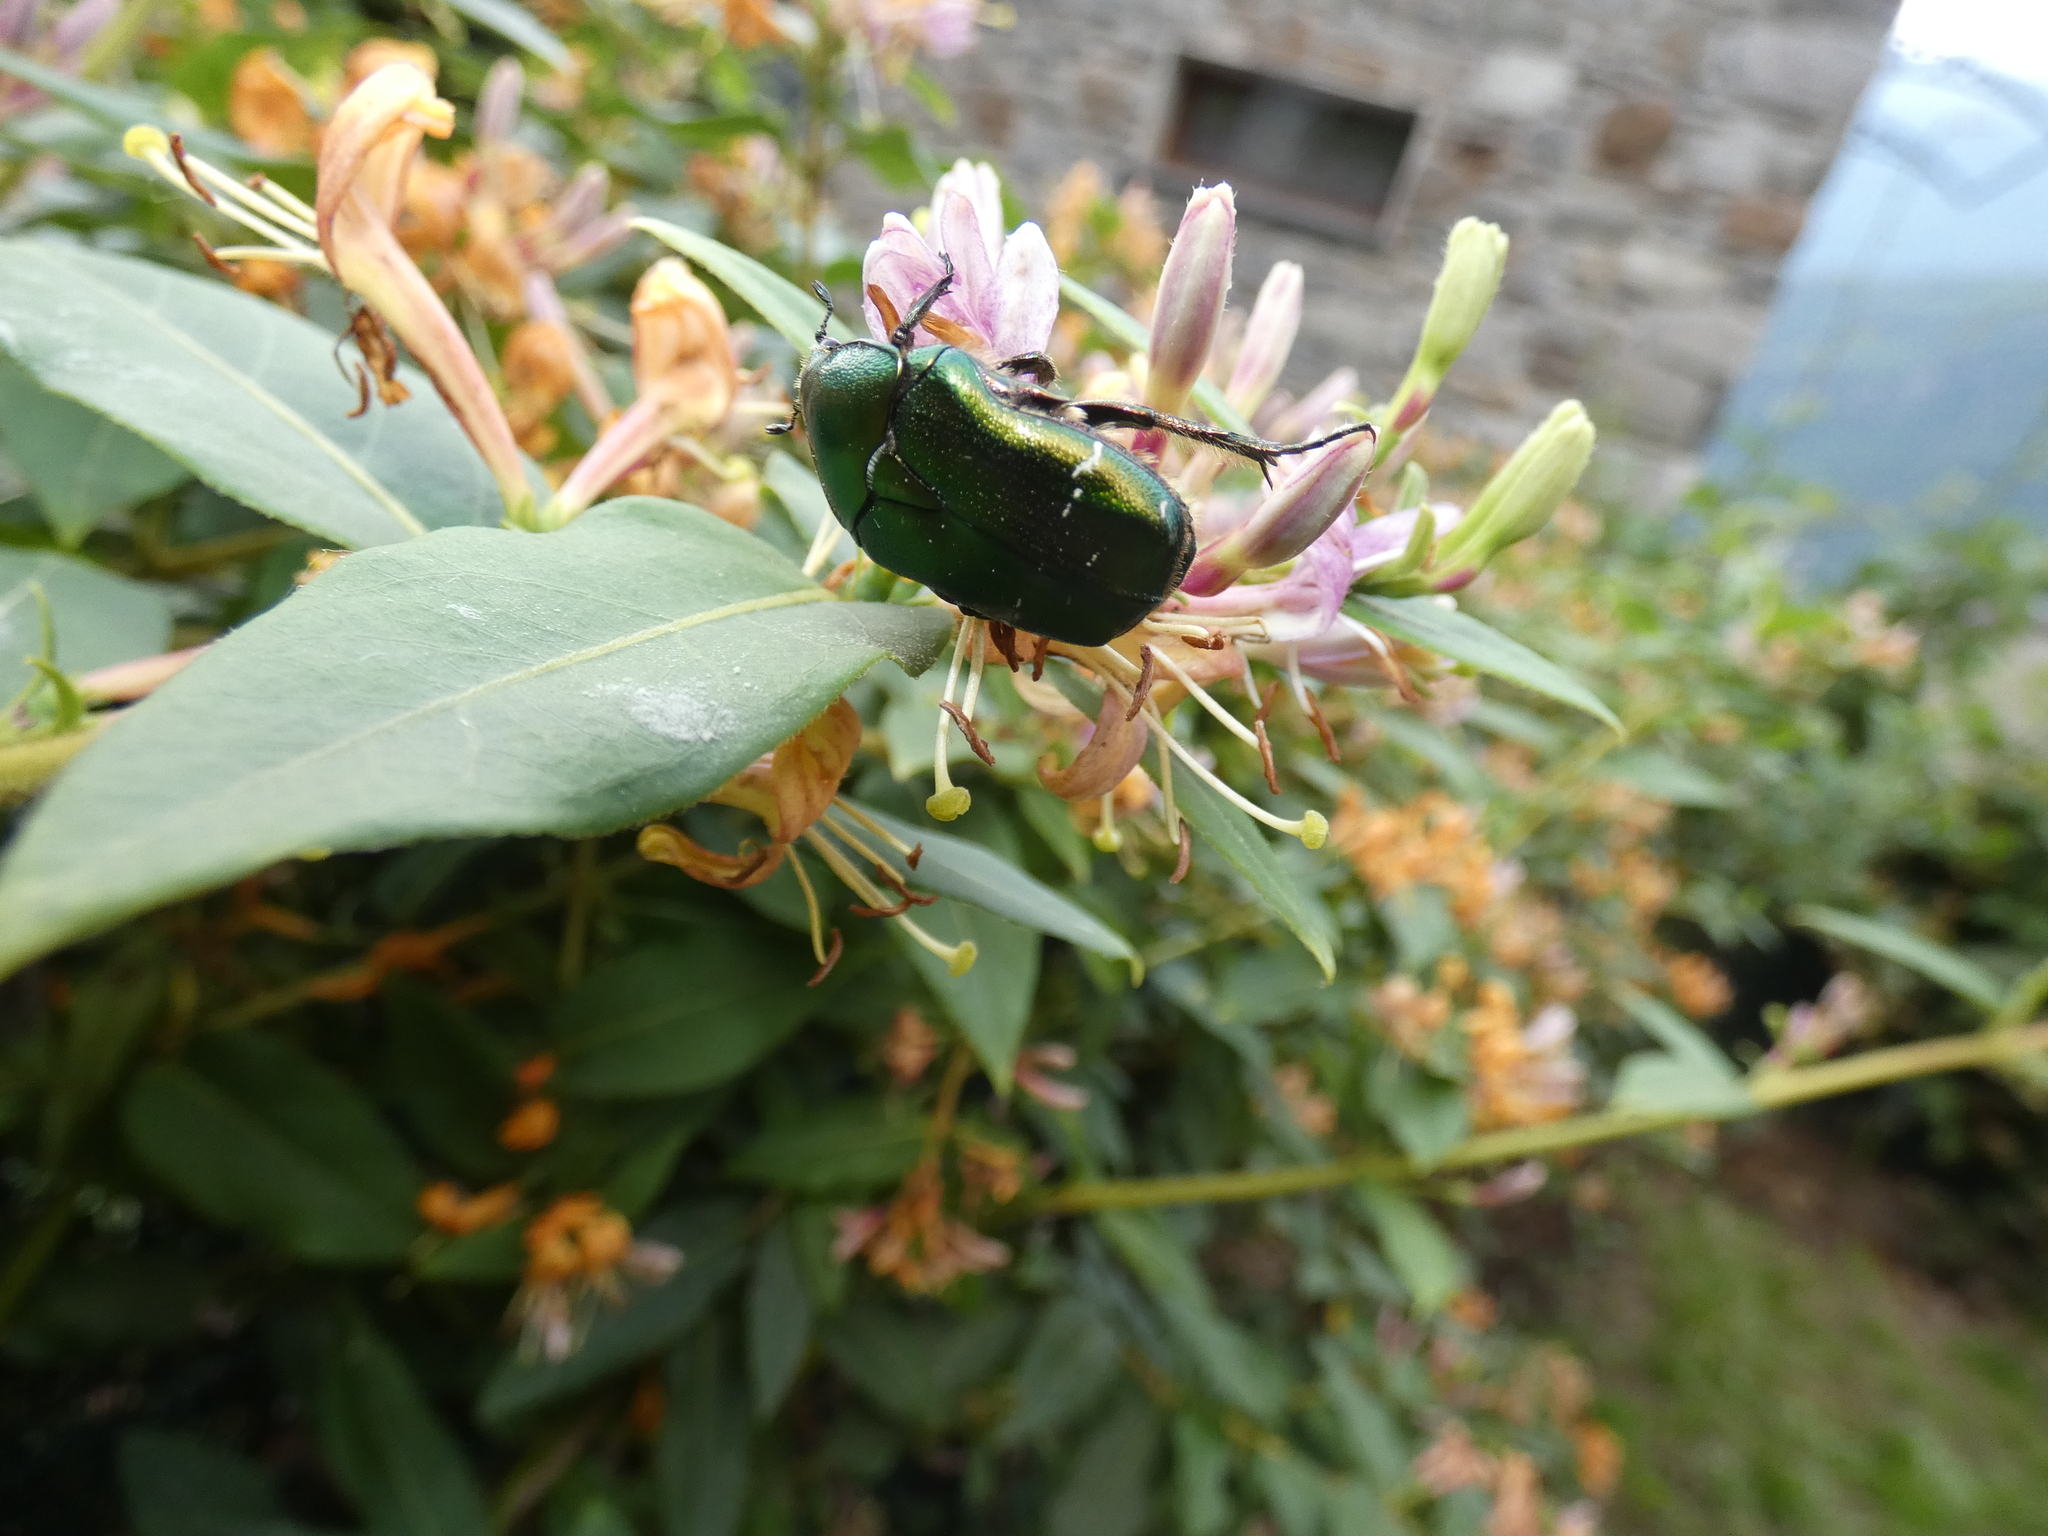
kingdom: Animalia
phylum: Arthropoda
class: Insecta
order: Coleoptera
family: Scarabaeidae
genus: Cetonia
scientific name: Cetonia aurata
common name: Rose chafer
